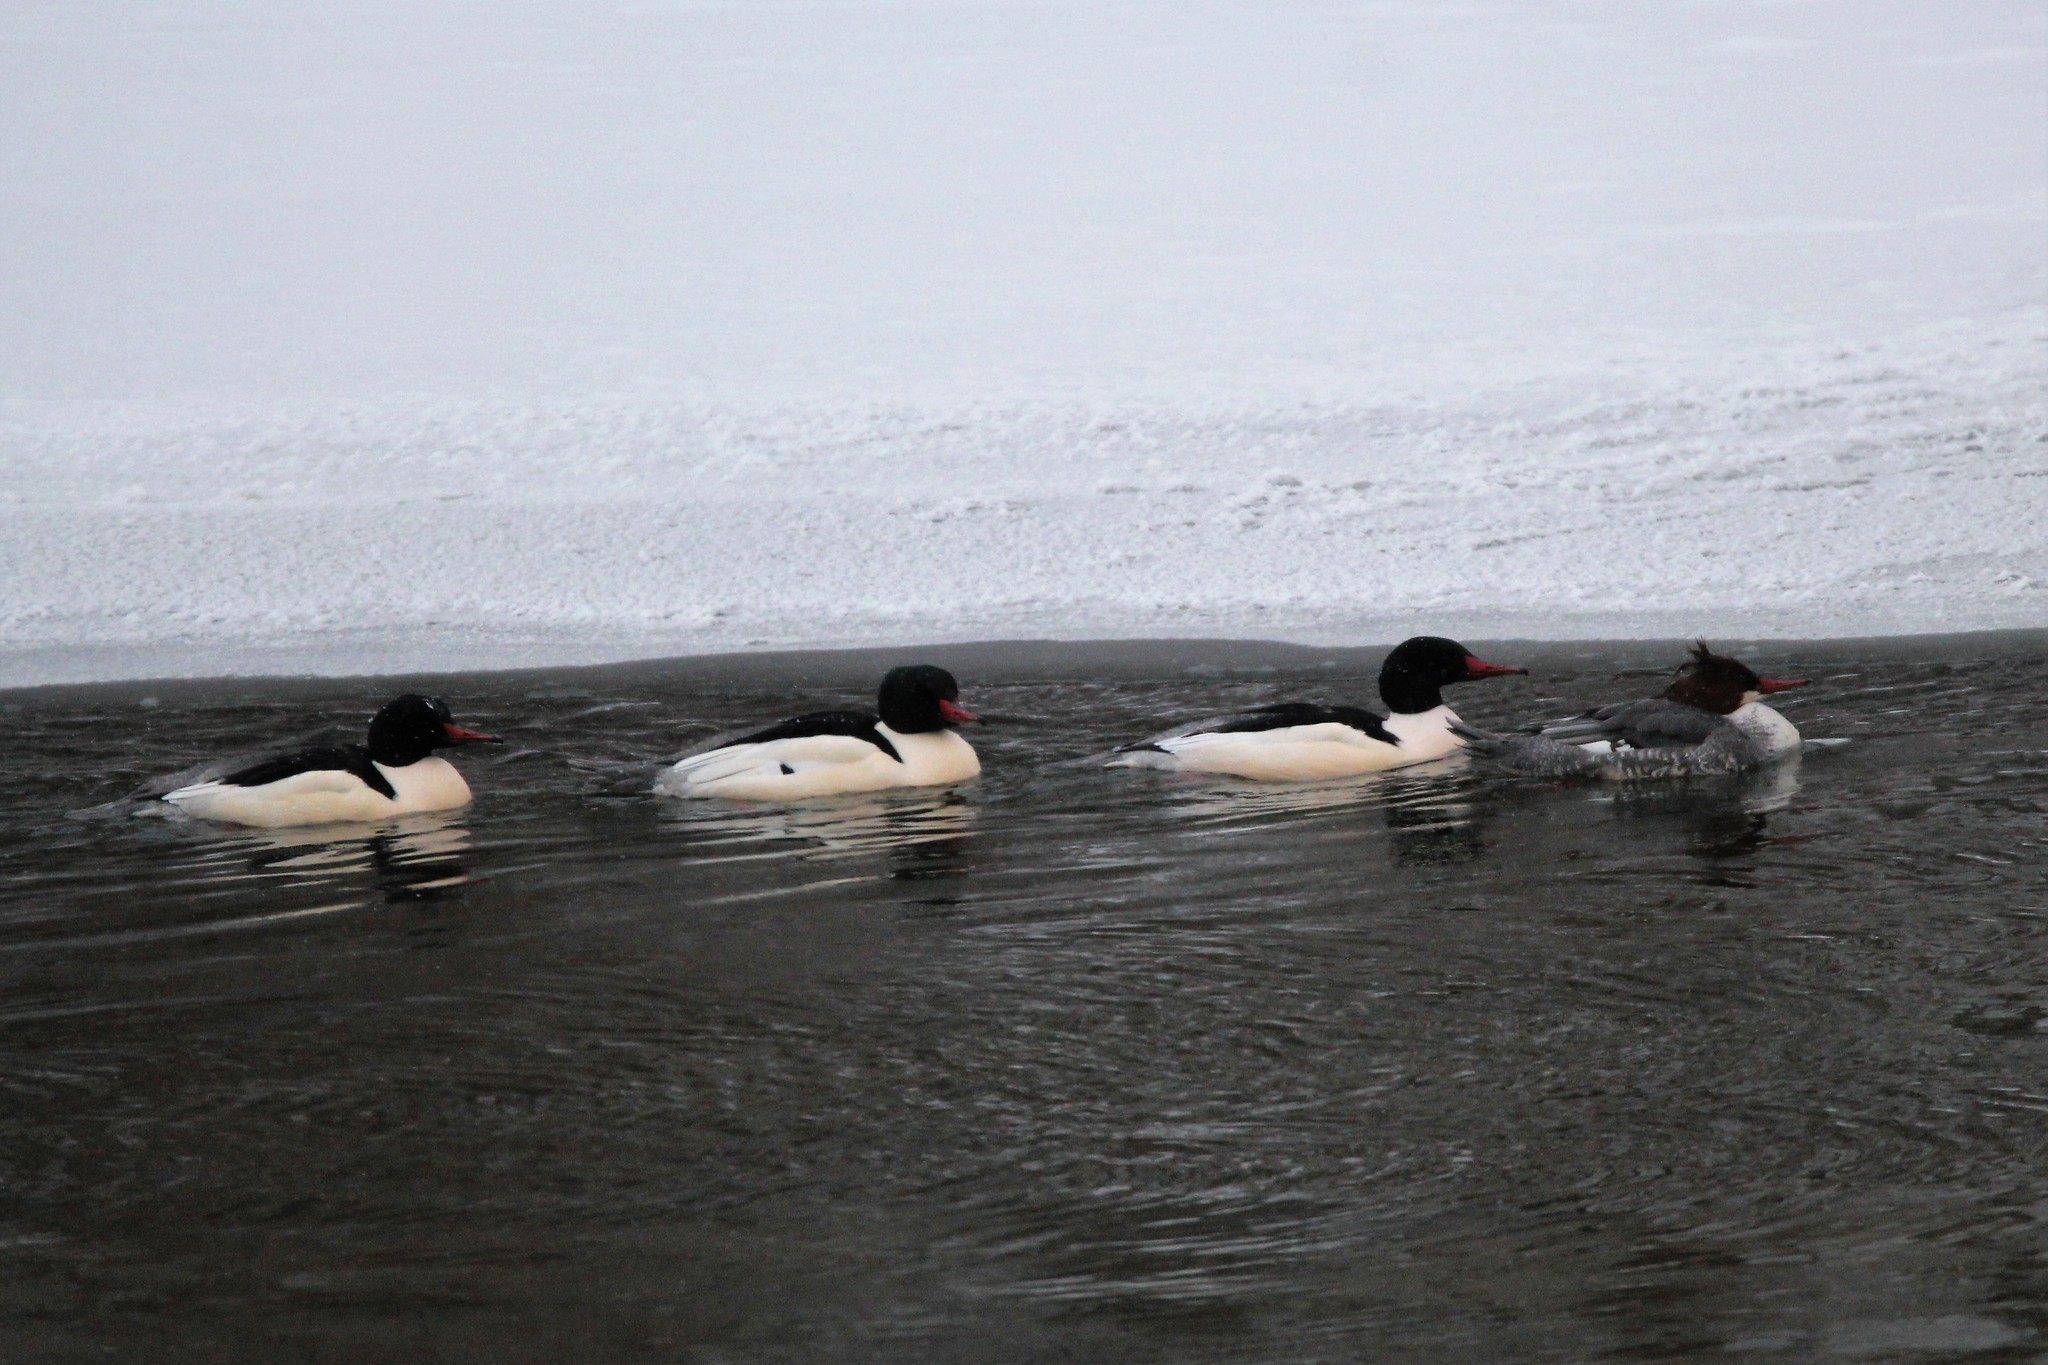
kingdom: Animalia
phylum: Chordata
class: Aves
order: Anseriformes
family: Anatidae
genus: Mergus
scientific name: Mergus merganser
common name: Common merganser
